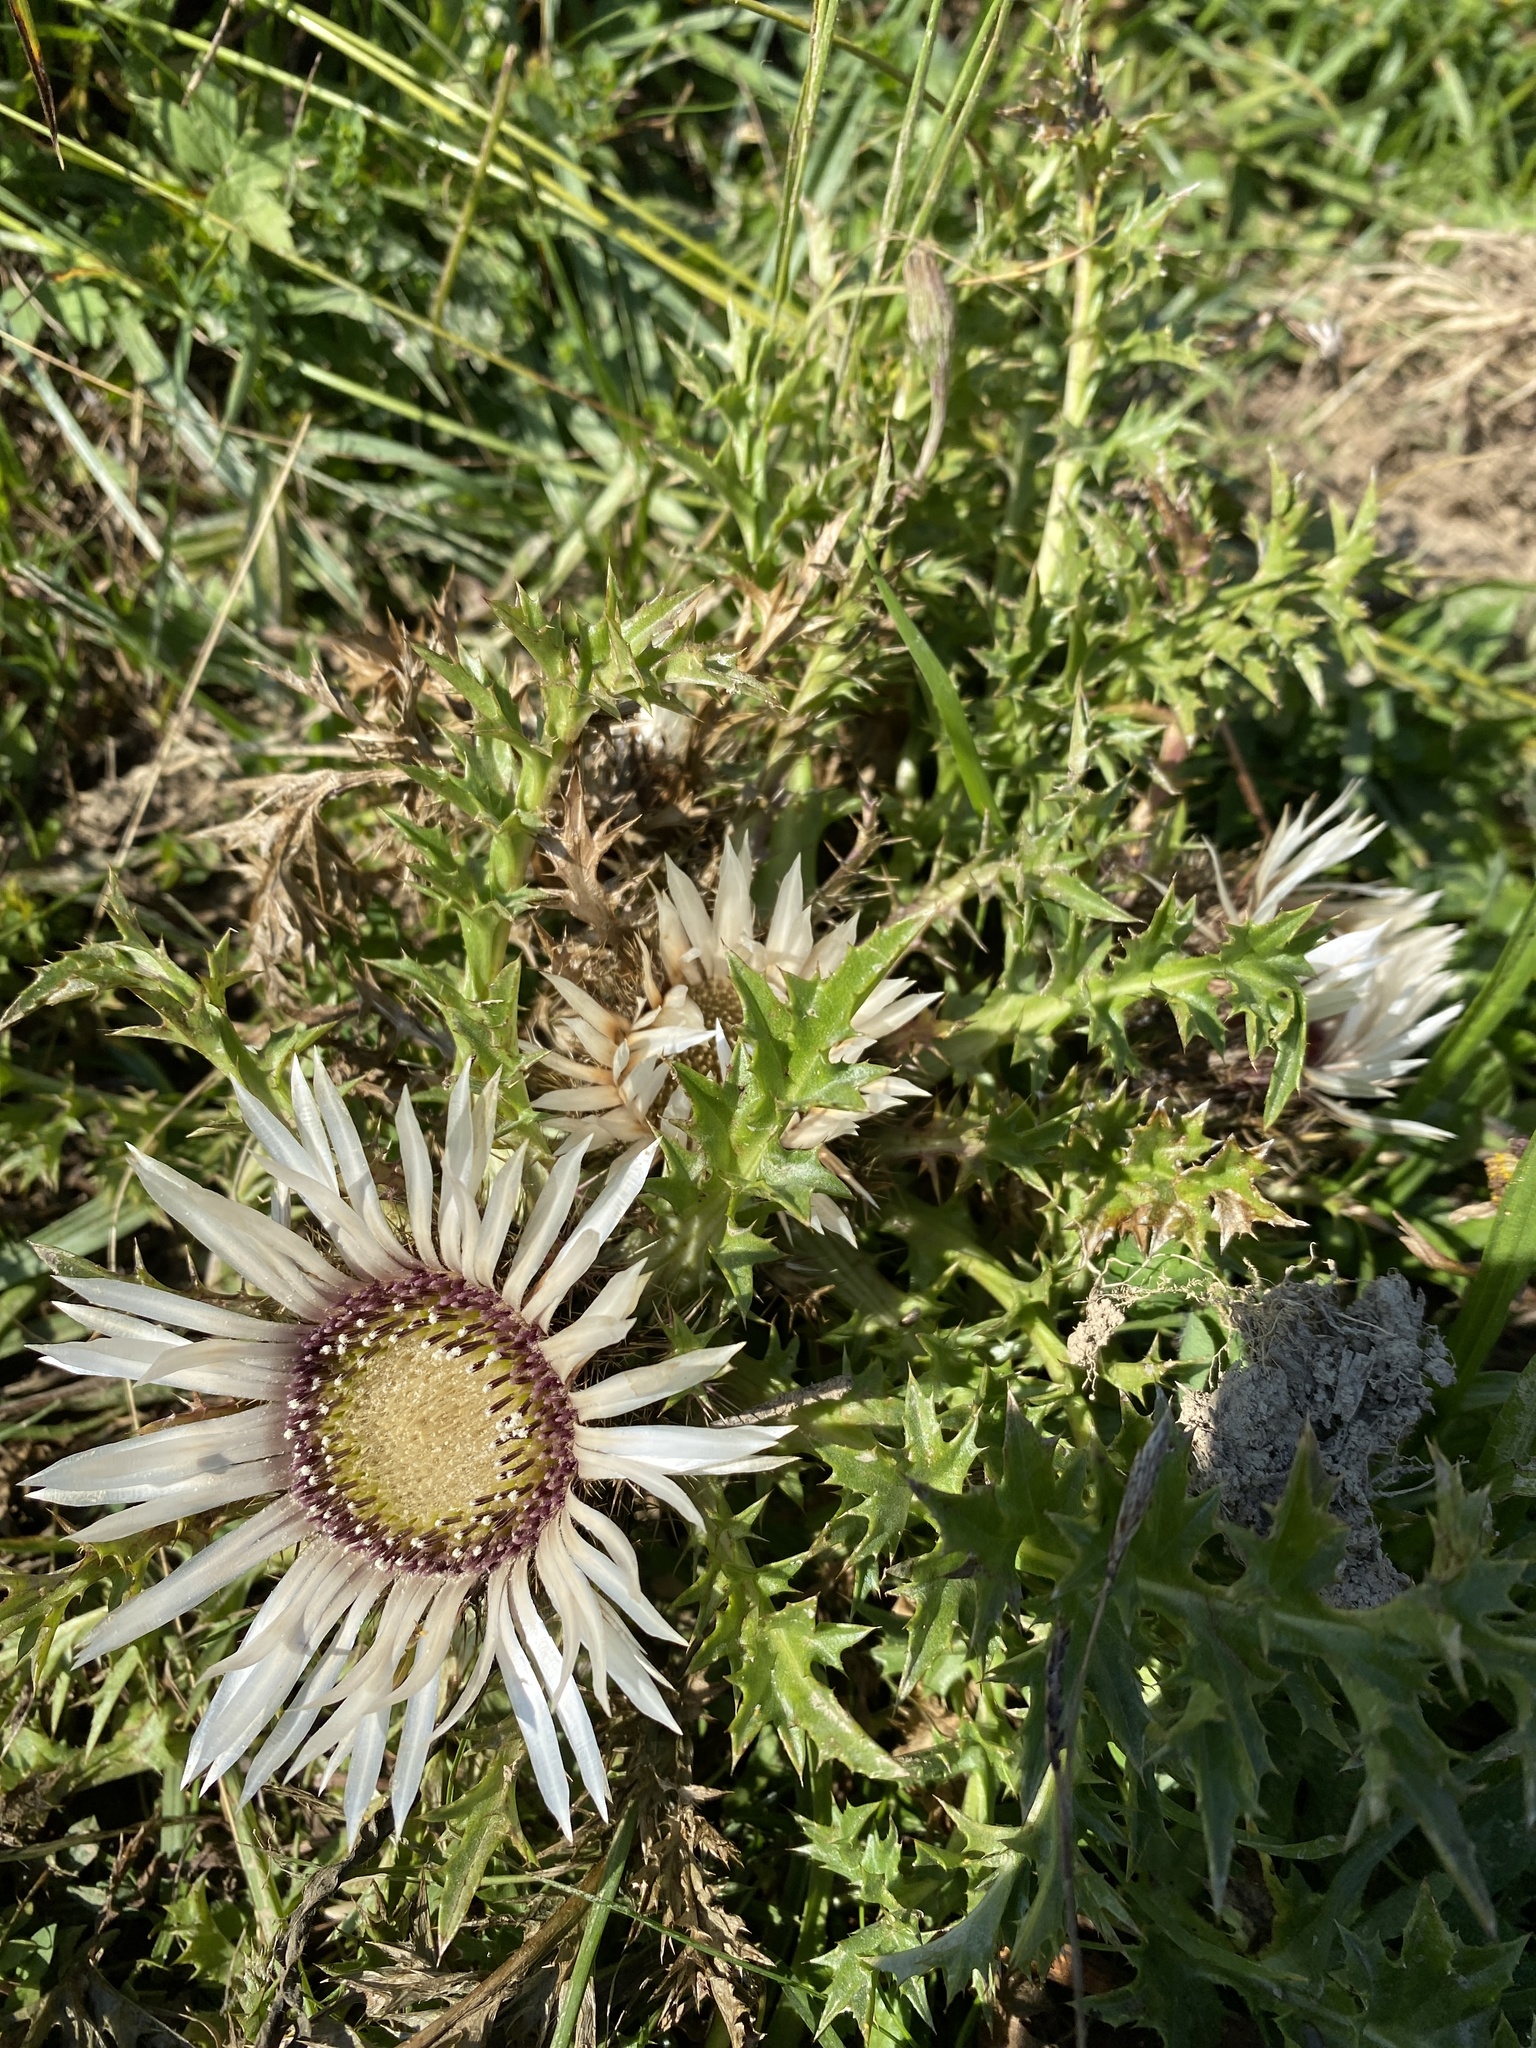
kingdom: Plantae
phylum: Tracheophyta
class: Magnoliopsida
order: Asterales
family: Asteraceae
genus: Carlina
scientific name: Carlina acaulis
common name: Stemless carline thistle
